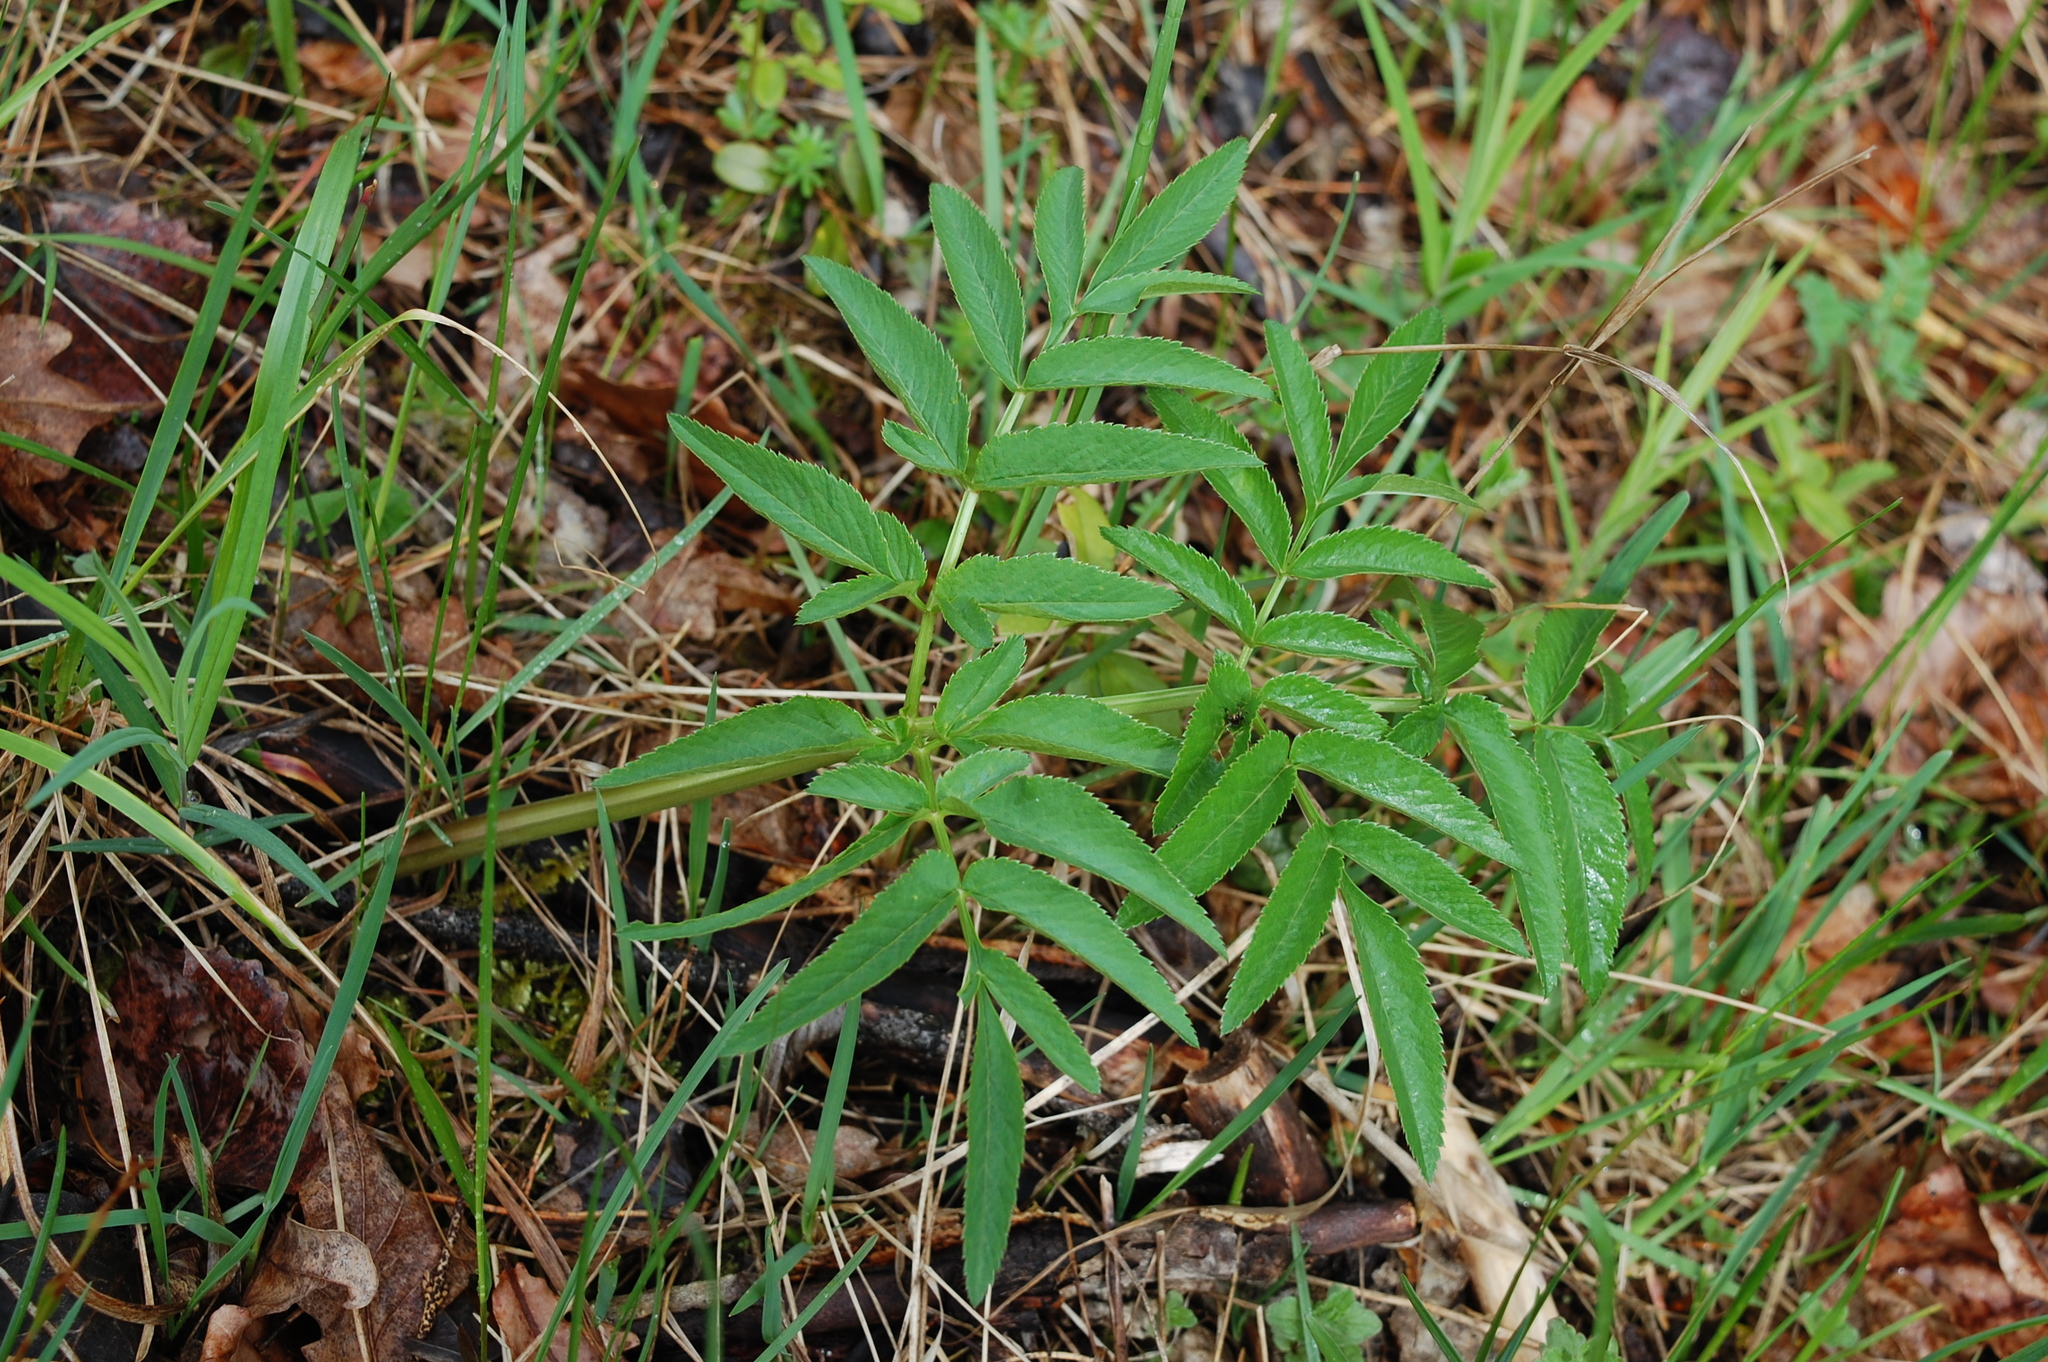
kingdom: Plantae
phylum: Tracheophyta
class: Magnoliopsida
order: Apiales
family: Apiaceae
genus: Angelica
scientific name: Angelica sylvestris
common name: Wild angelica
